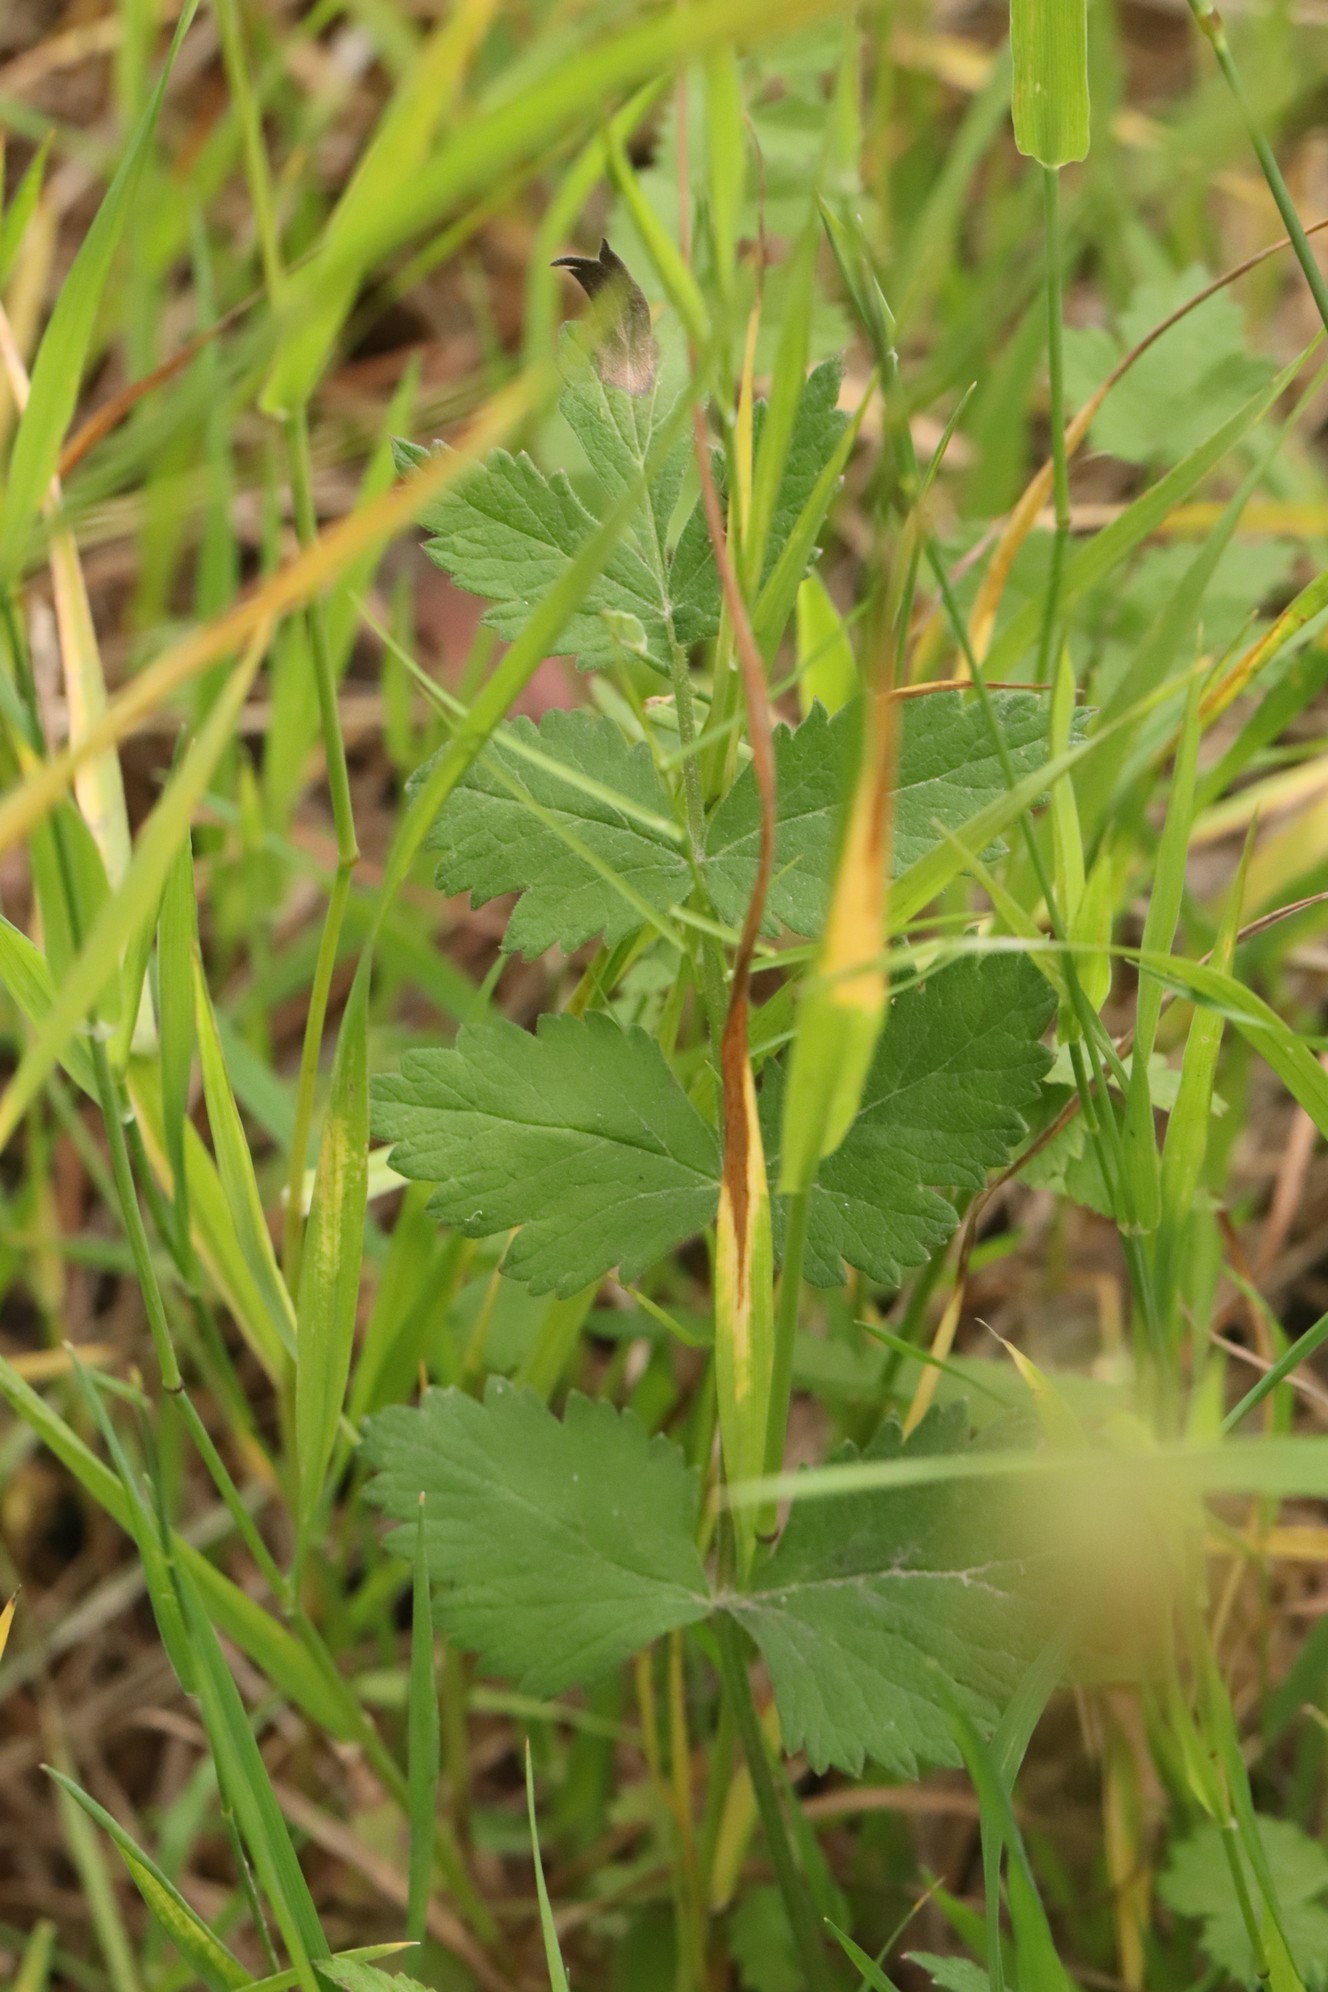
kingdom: Plantae
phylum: Tracheophyta
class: Magnoliopsida
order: Apiales
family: Apiaceae
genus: Pimpinella
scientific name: Pimpinella saxifraga
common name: Burnet-saxifrage
